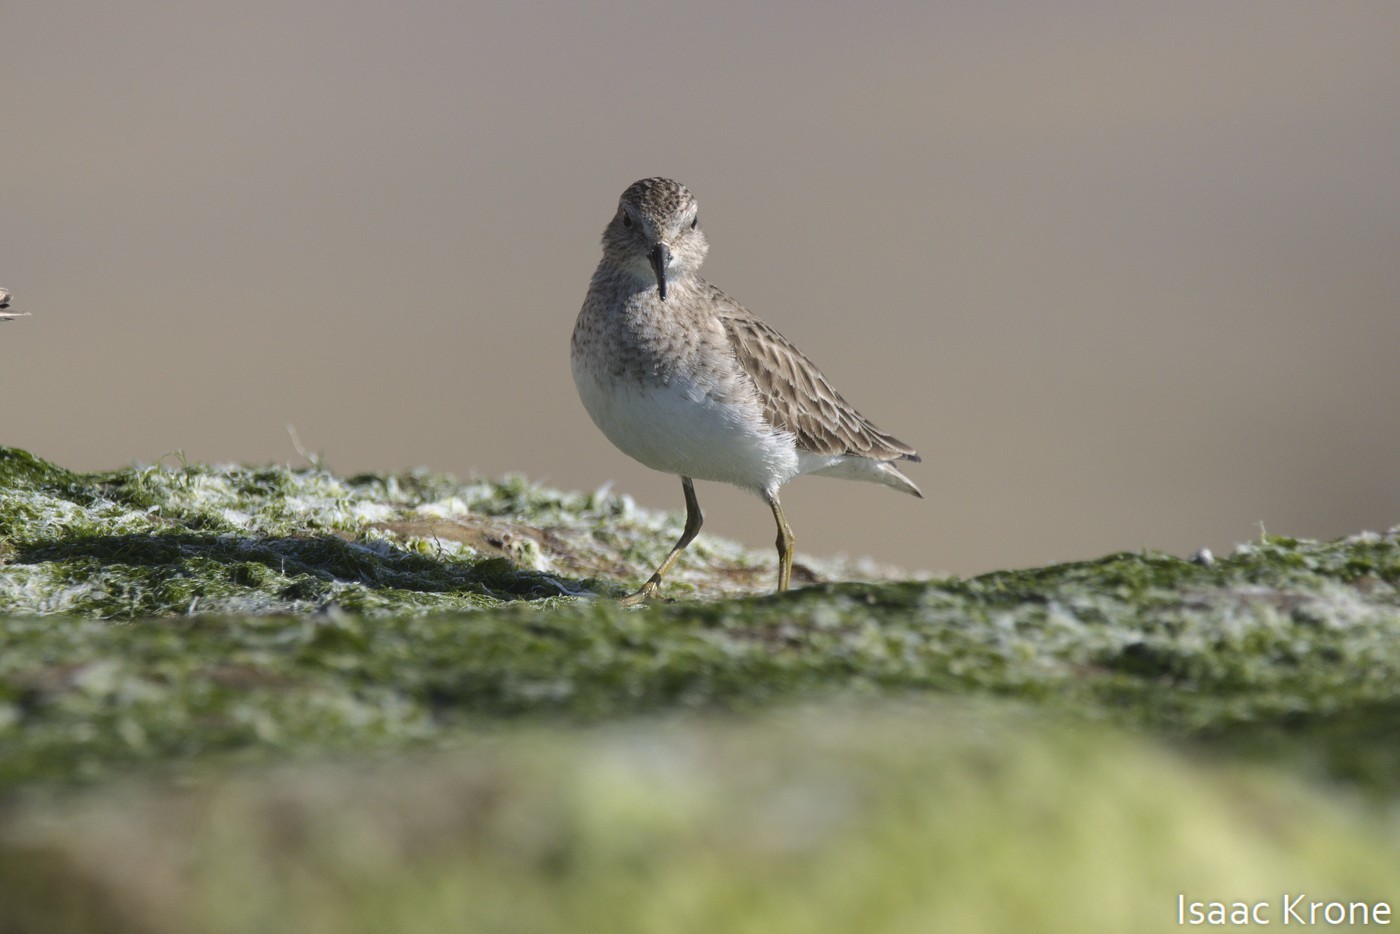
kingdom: Animalia
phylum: Chordata
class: Aves
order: Charadriiformes
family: Scolopacidae
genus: Calidris
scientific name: Calidris minutilla
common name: Least sandpiper
